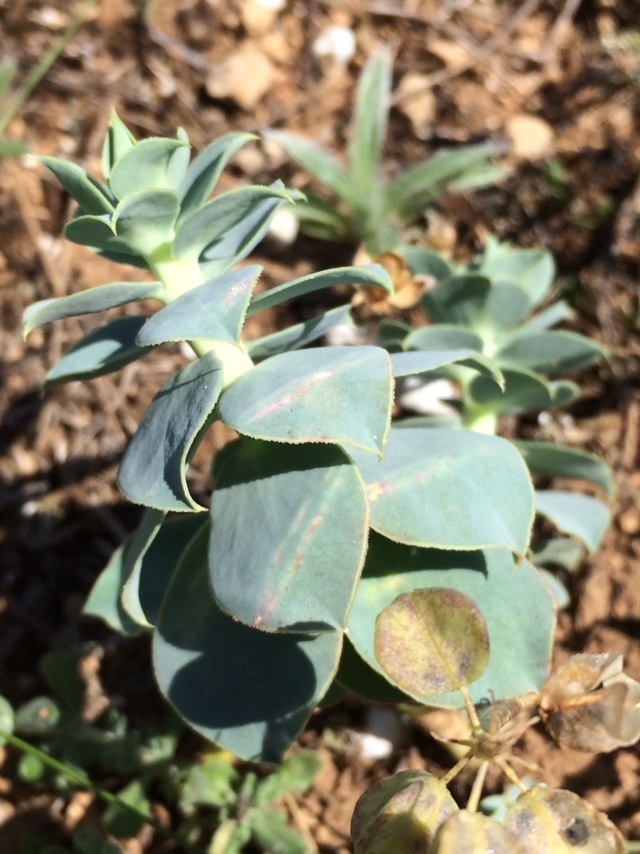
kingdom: Plantae
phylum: Tracheophyta
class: Magnoliopsida
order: Malpighiales
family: Euphorbiaceae
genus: Euphorbia
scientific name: Euphorbia myrsinites
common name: Myrtle spurge
